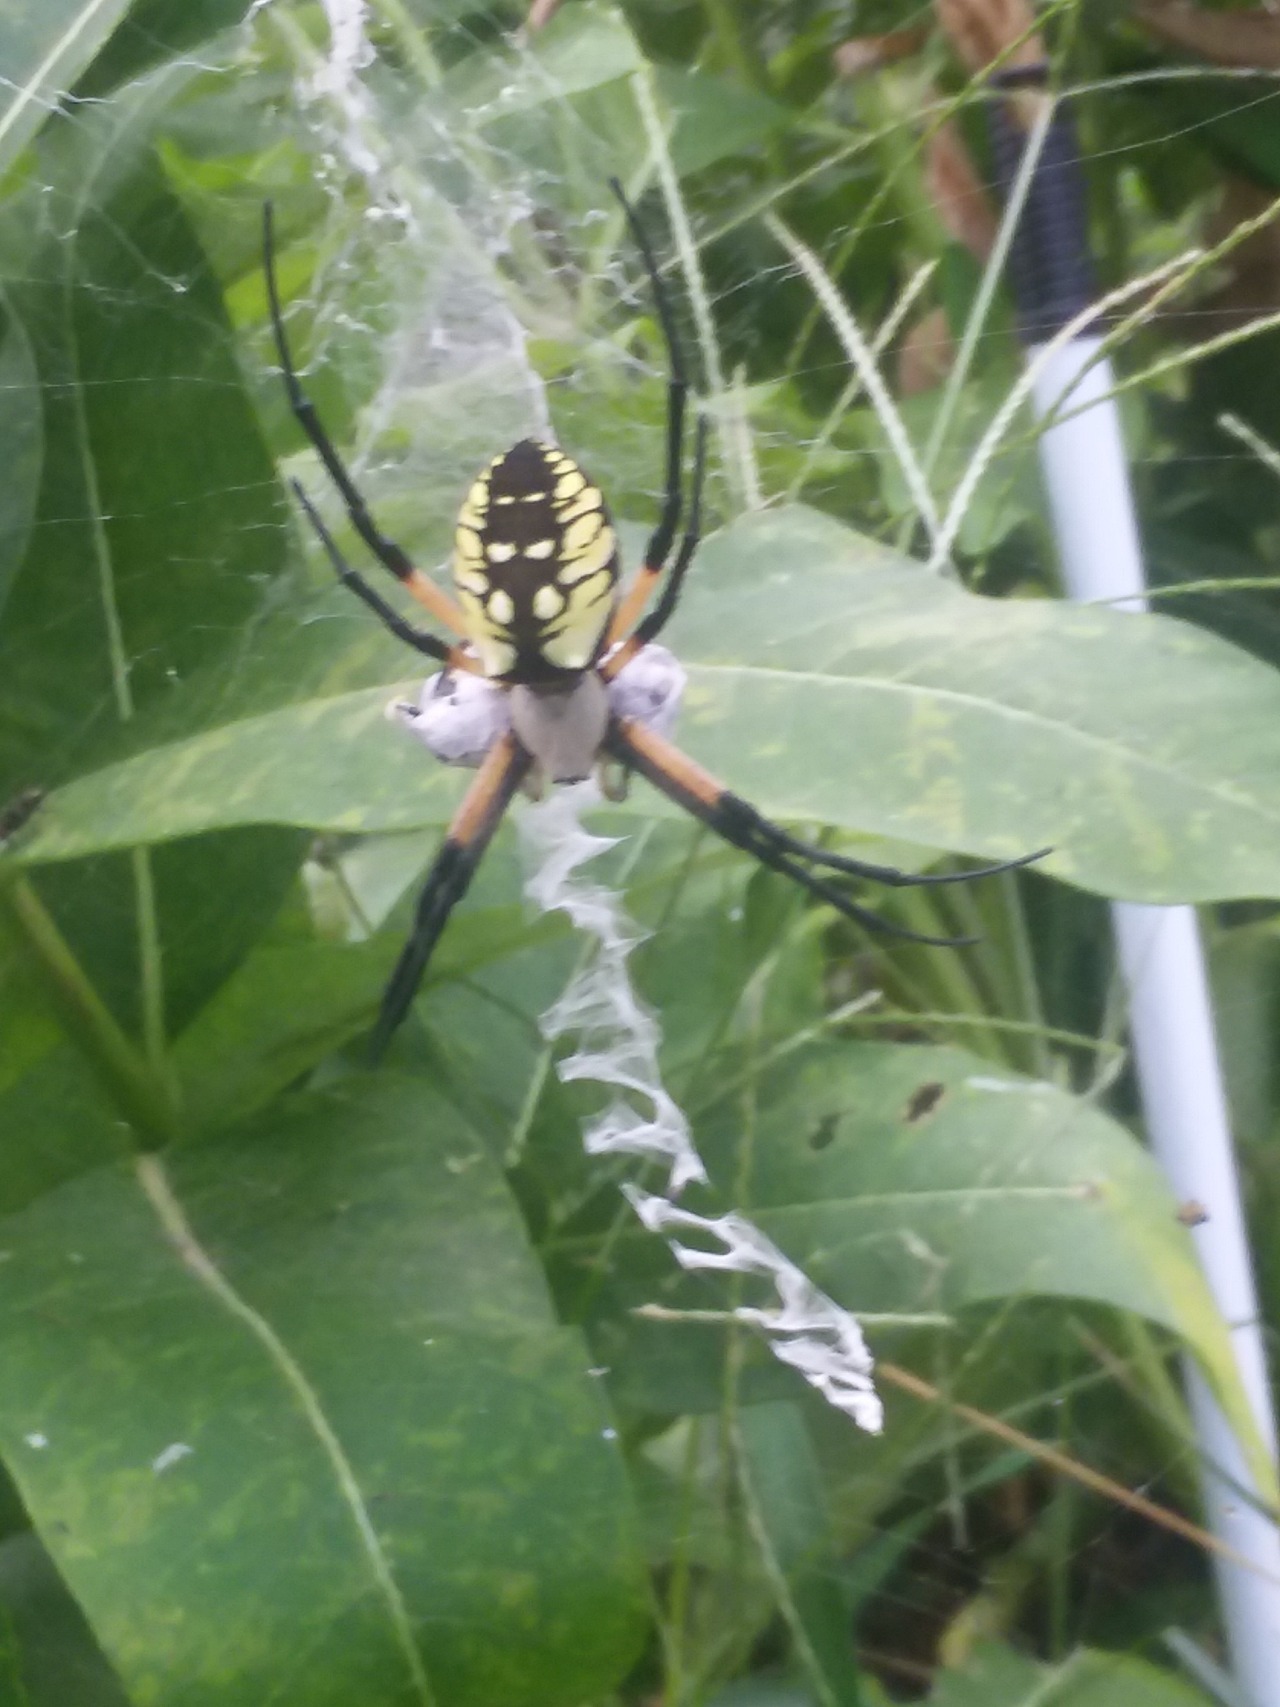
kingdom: Animalia
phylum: Arthropoda
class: Arachnida
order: Araneae
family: Araneidae
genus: Argiope
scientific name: Argiope aurantia
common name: Orb weavers
